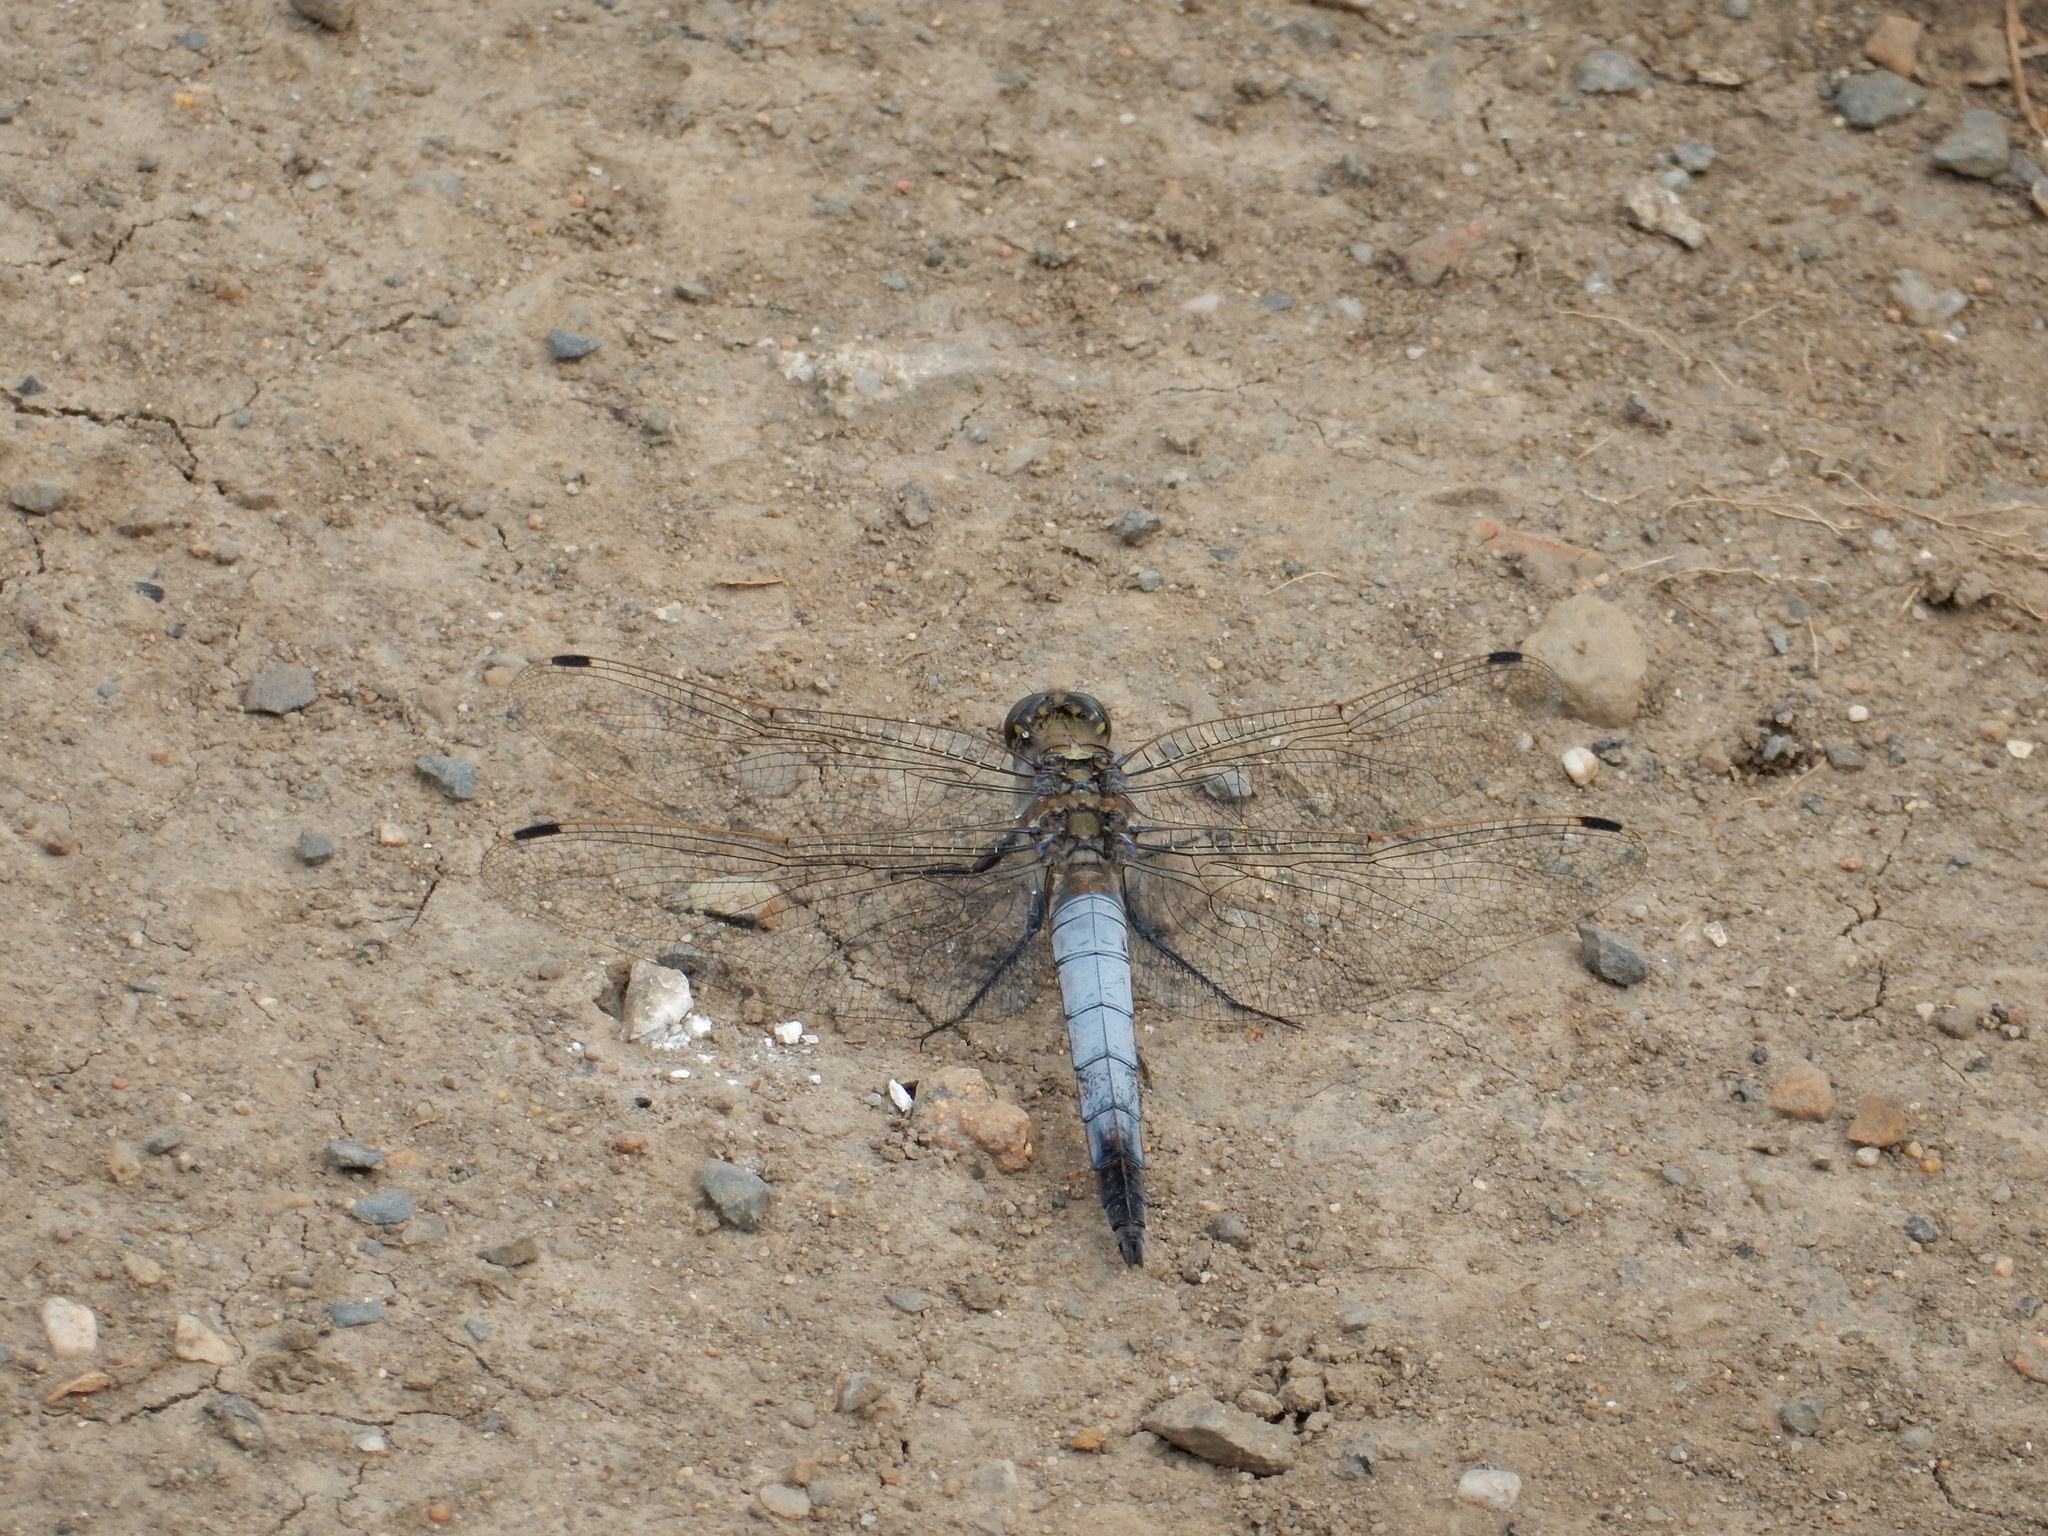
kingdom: Animalia
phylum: Arthropoda
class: Insecta
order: Odonata
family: Libellulidae
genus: Orthetrum
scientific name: Orthetrum cancellatum
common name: Black-tailed skimmer
